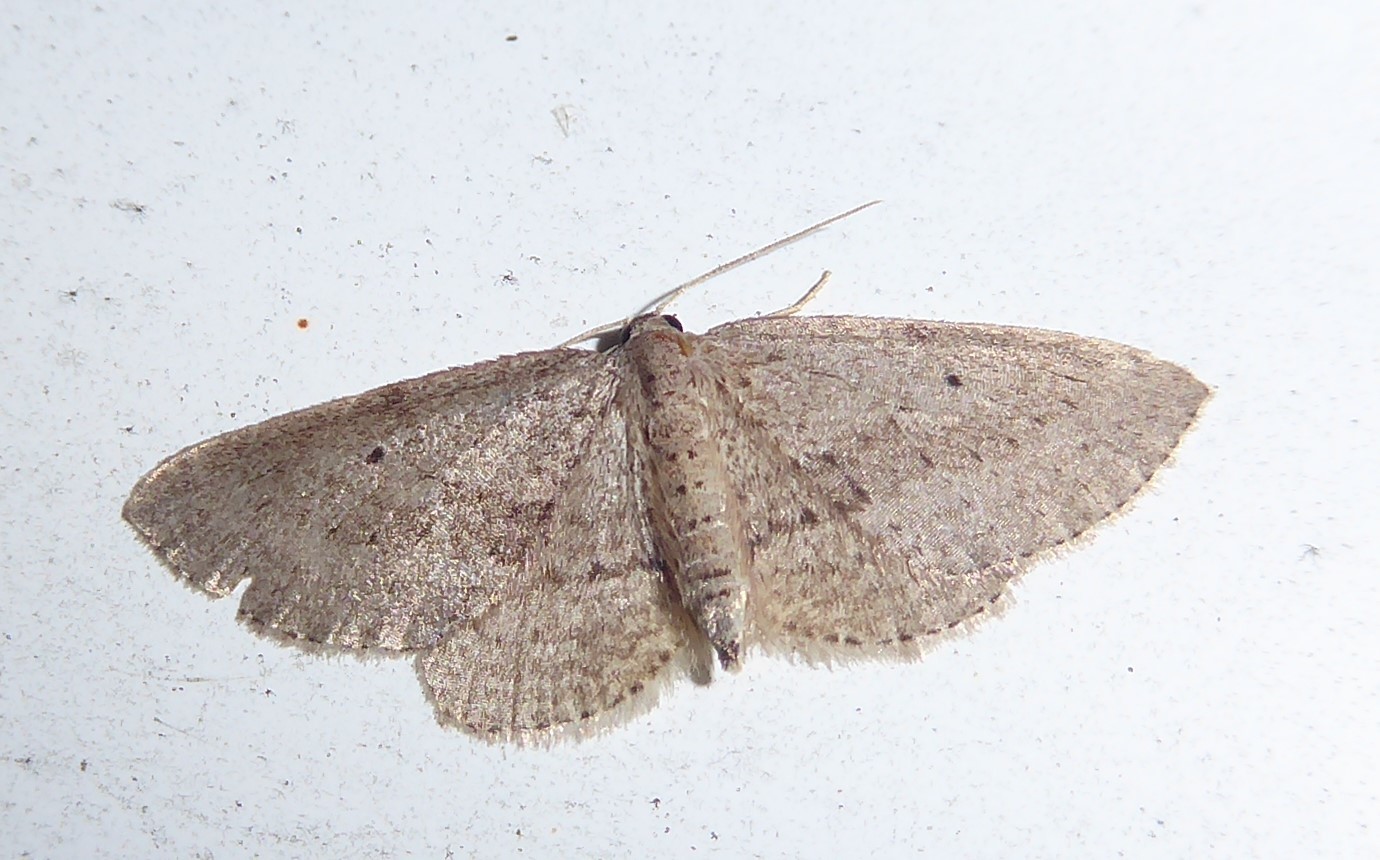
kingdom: Animalia
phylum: Arthropoda
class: Insecta
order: Lepidoptera
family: Geometridae
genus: Poecilasthena
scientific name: Poecilasthena schistaria
